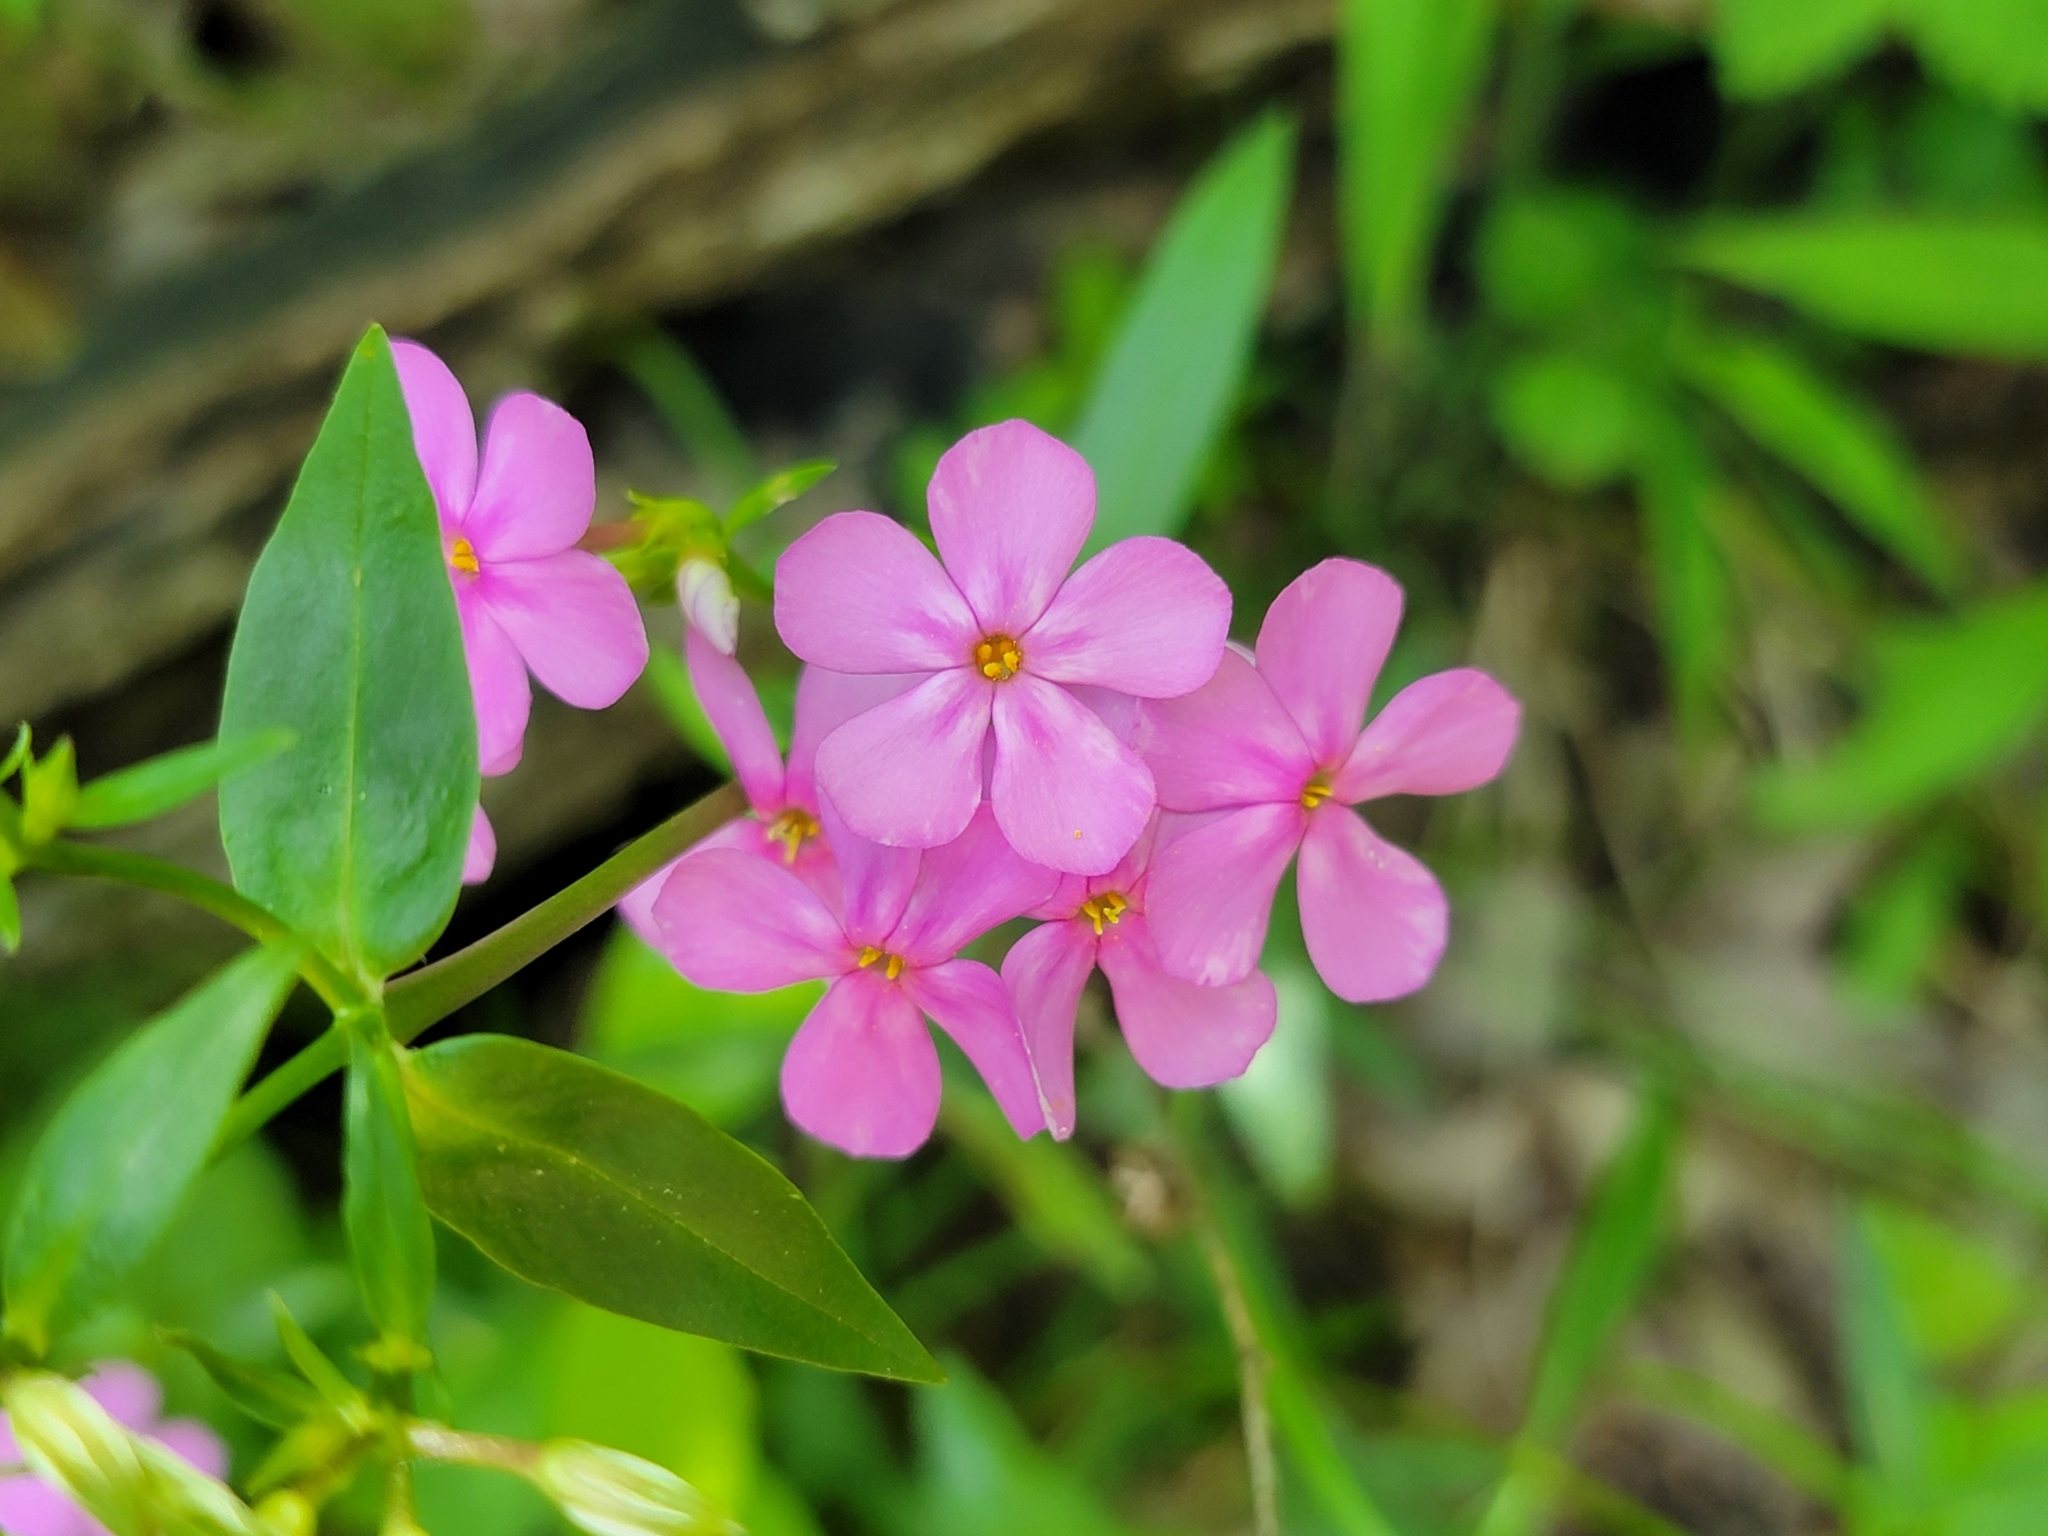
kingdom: Plantae
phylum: Tracheophyta
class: Magnoliopsida
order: Ericales
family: Polemoniaceae
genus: Phlox
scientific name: Phlox glaberrima
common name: Smooth phlox
